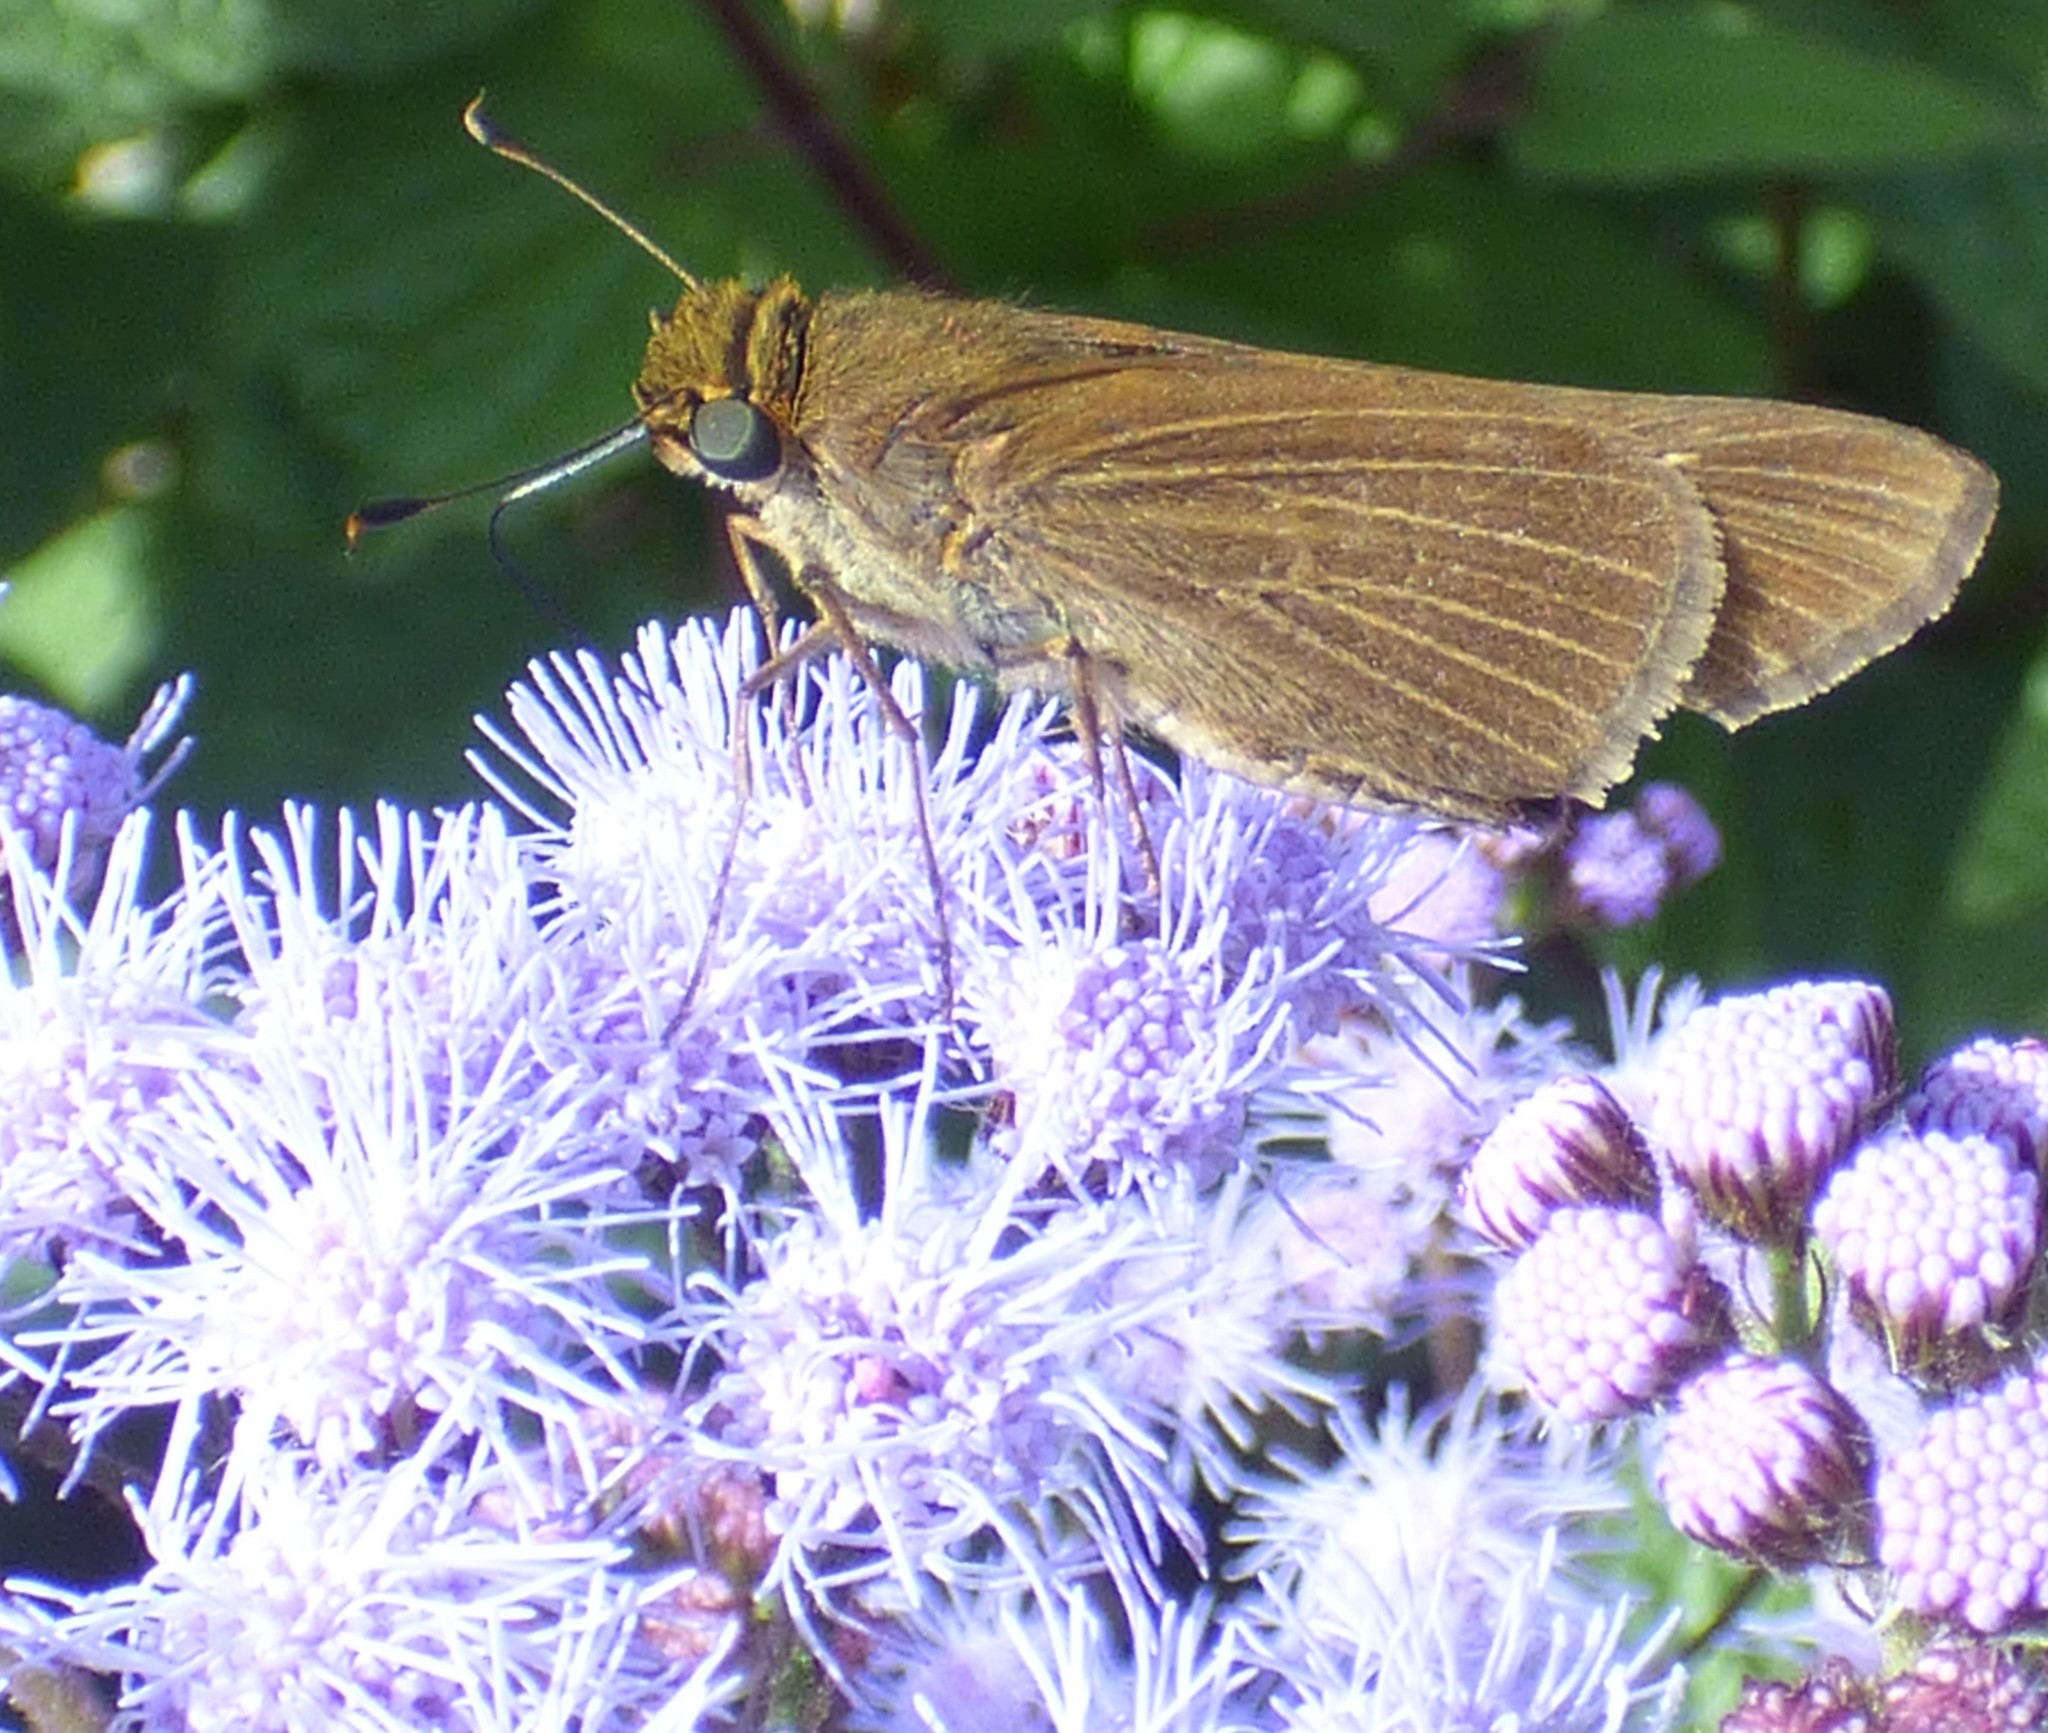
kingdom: Animalia
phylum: Arthropoda
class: Insecta
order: Lepidoptera
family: Hesperiidae
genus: Panoquina
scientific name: Panoquina ocola
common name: Ocola skipper
